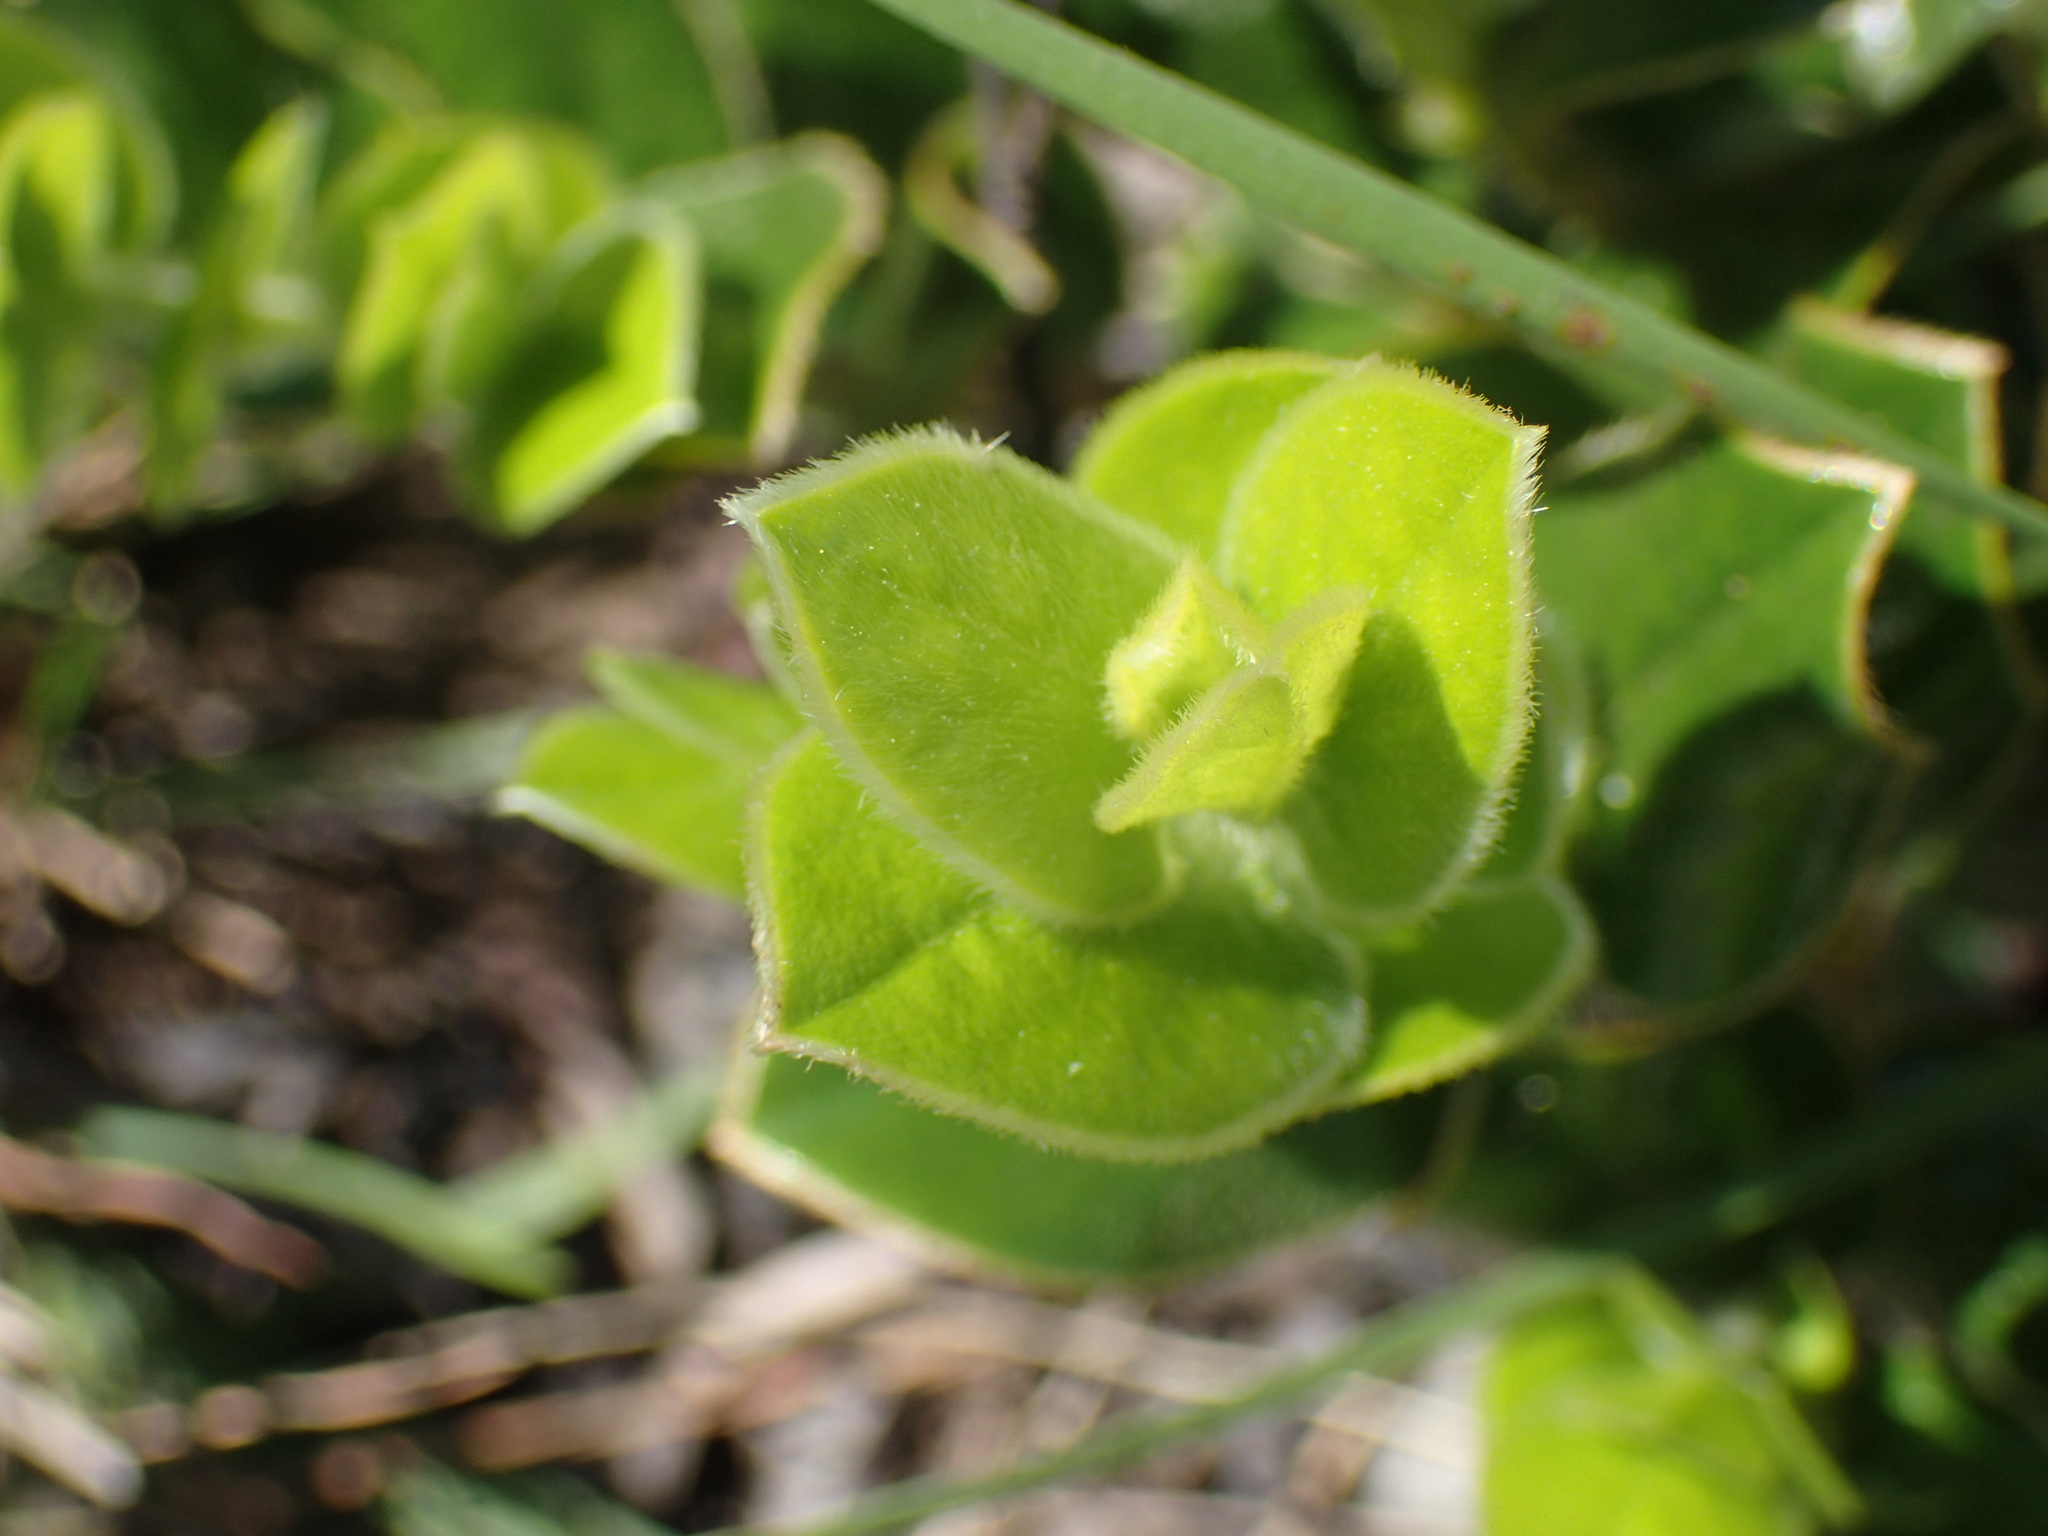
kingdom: Plantae
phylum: Tracheophyta
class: Magnoliopsida
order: Ericales
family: Ebenaceae
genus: Diospyros
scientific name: Diospyros scabrida
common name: Coastal bladder-nut
